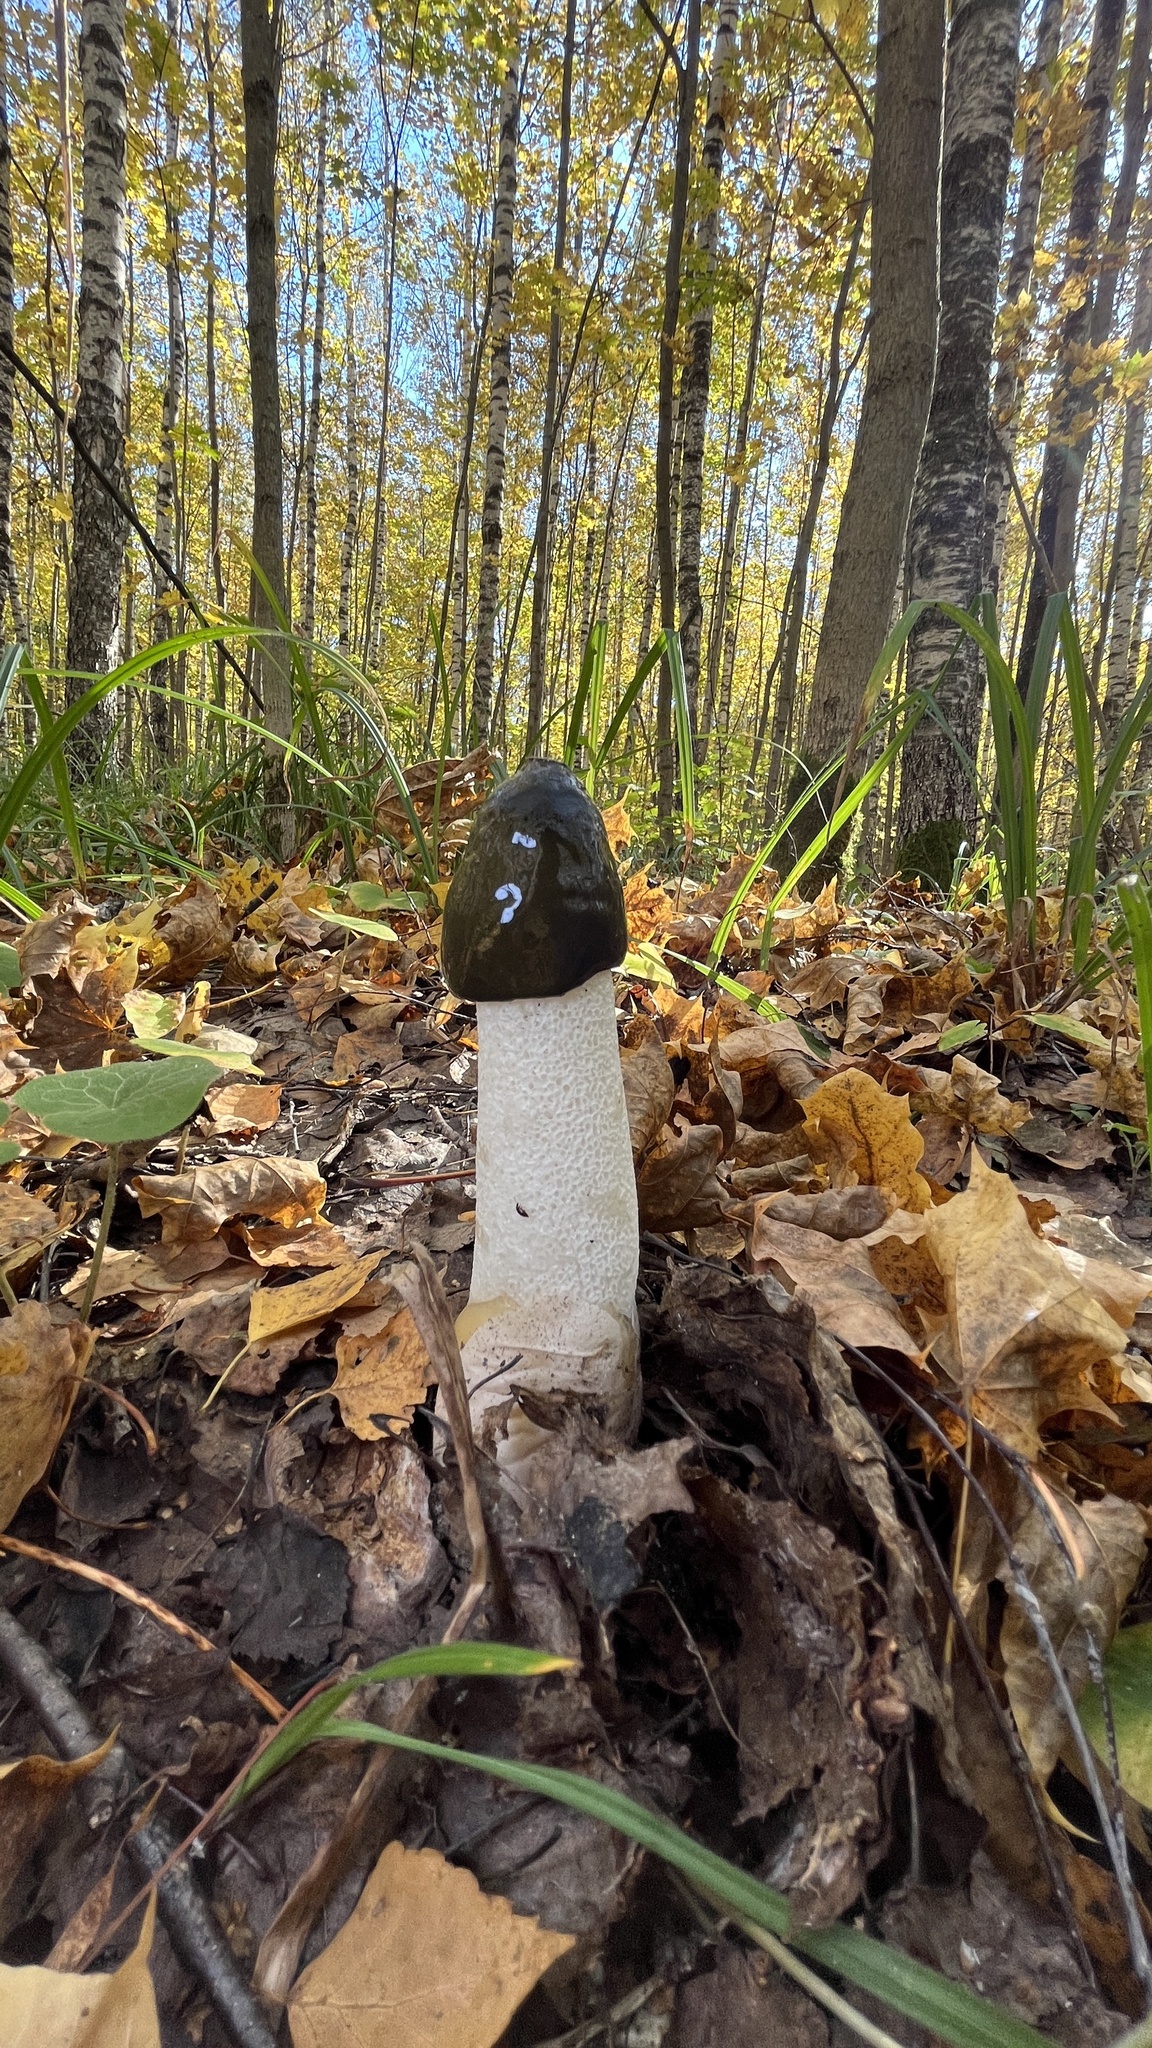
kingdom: Fungi
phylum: Basidiomycota
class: Agaricomycetes
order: Phallales
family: Phallaceae
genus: Phallus
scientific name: Phallus impudicus
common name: Common stinkhorn
